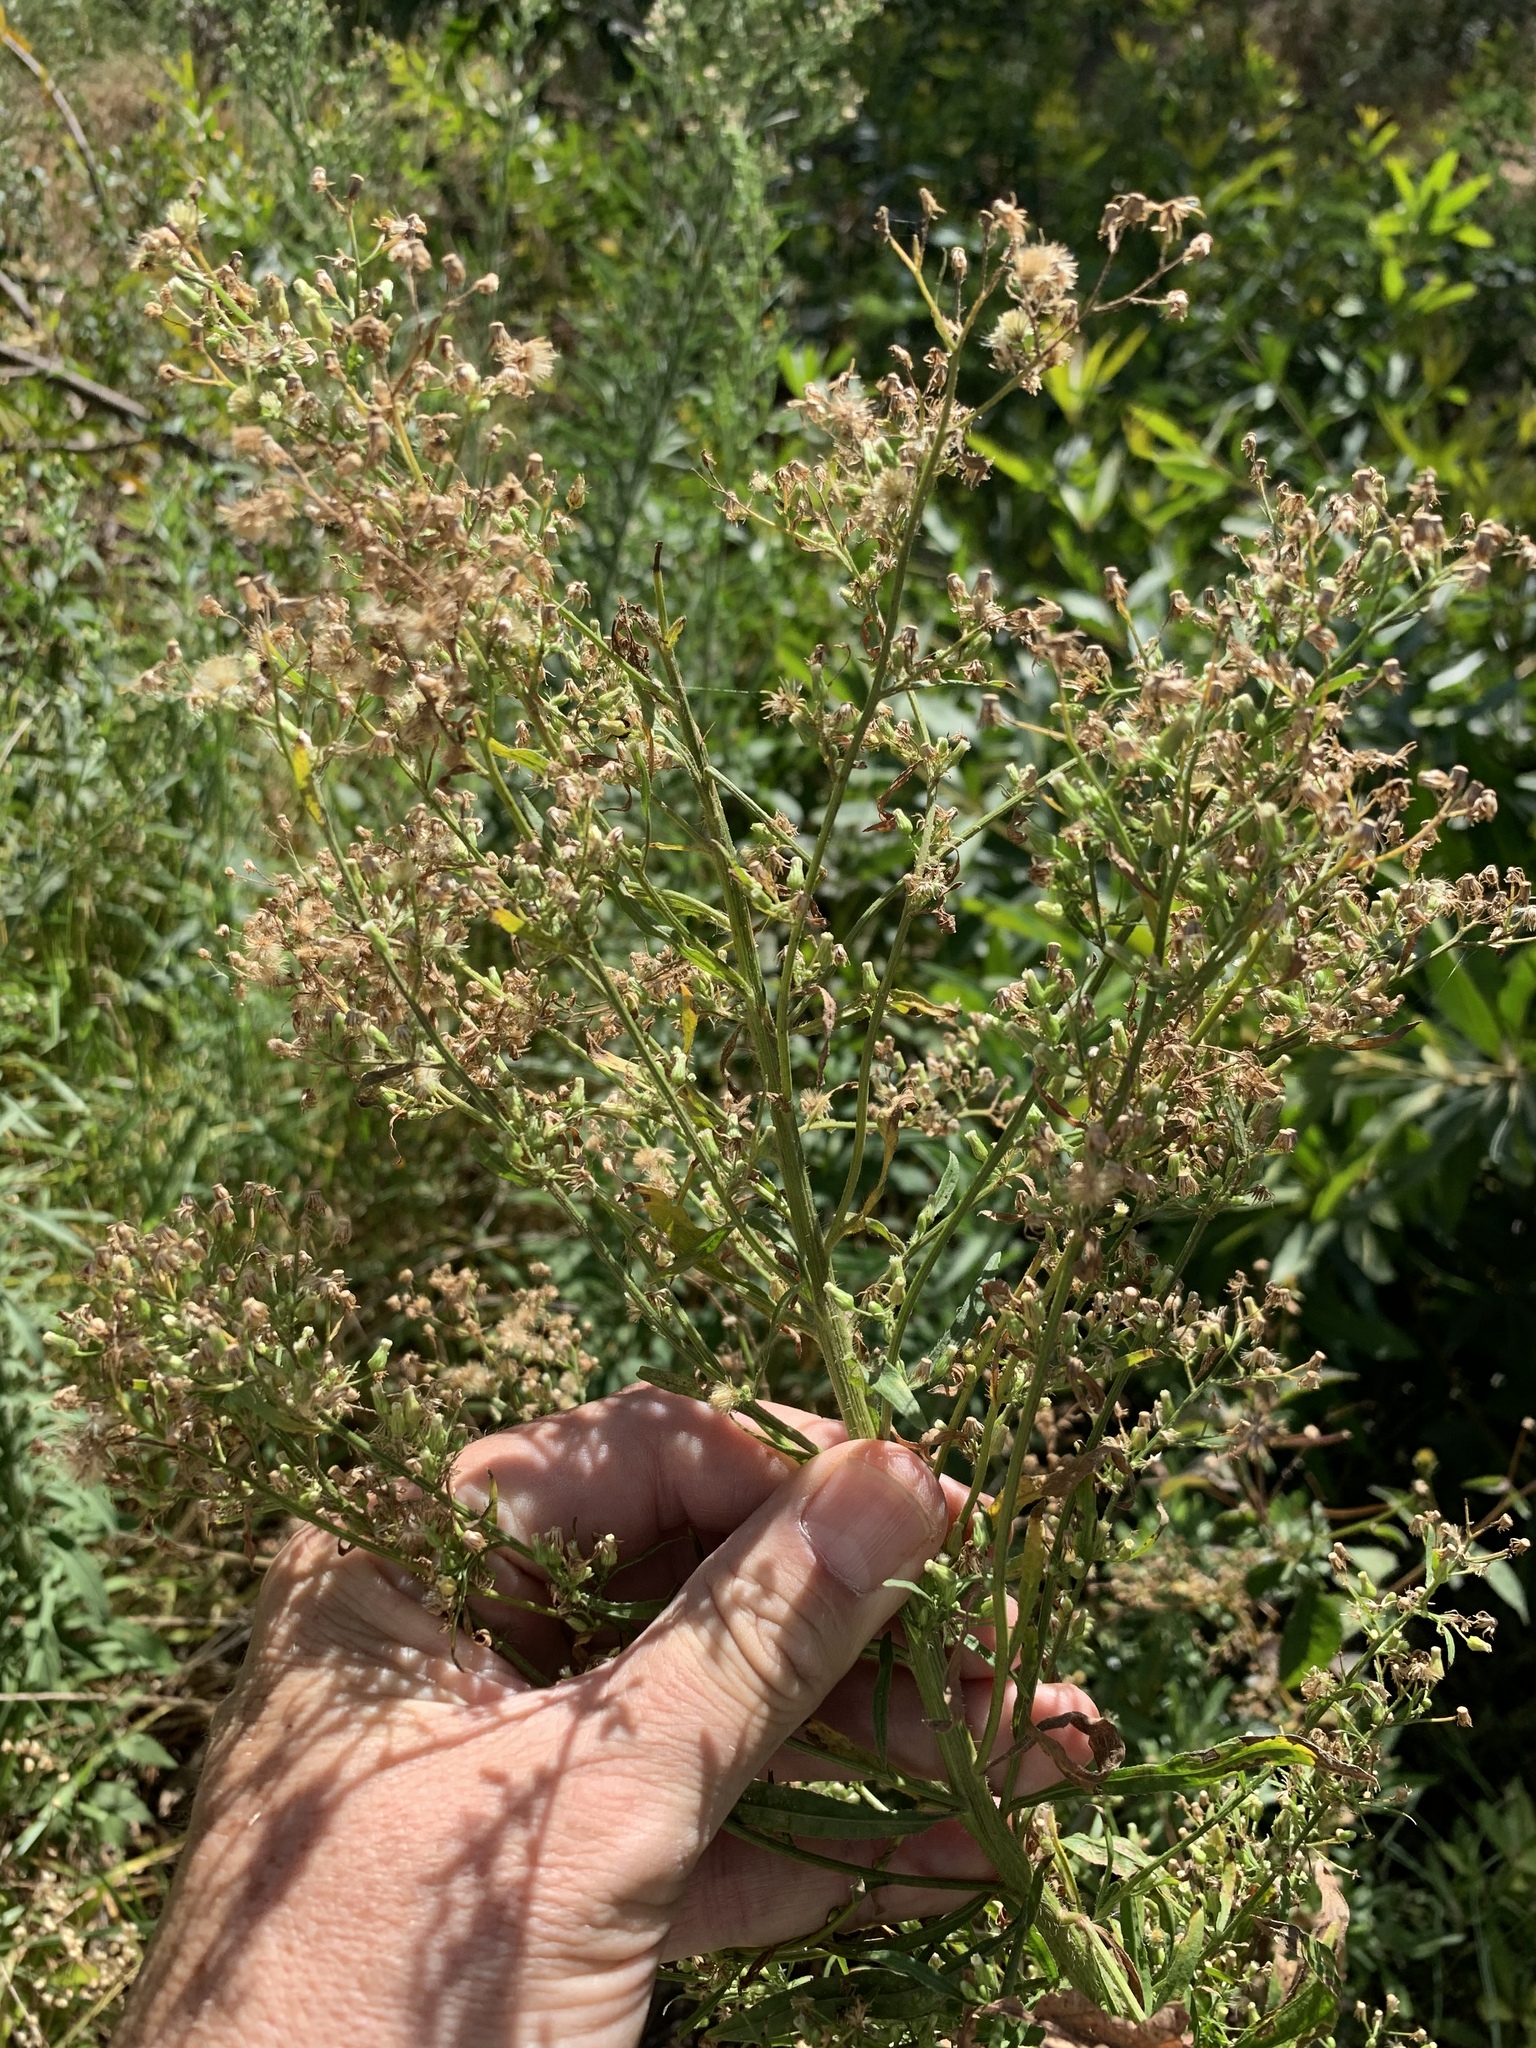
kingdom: Plantae
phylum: Tracheophyta
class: Magnoliopsida
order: Asterales
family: Asteraceae
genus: Erigeron
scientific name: Erigeron sumatrensis
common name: Daisy
